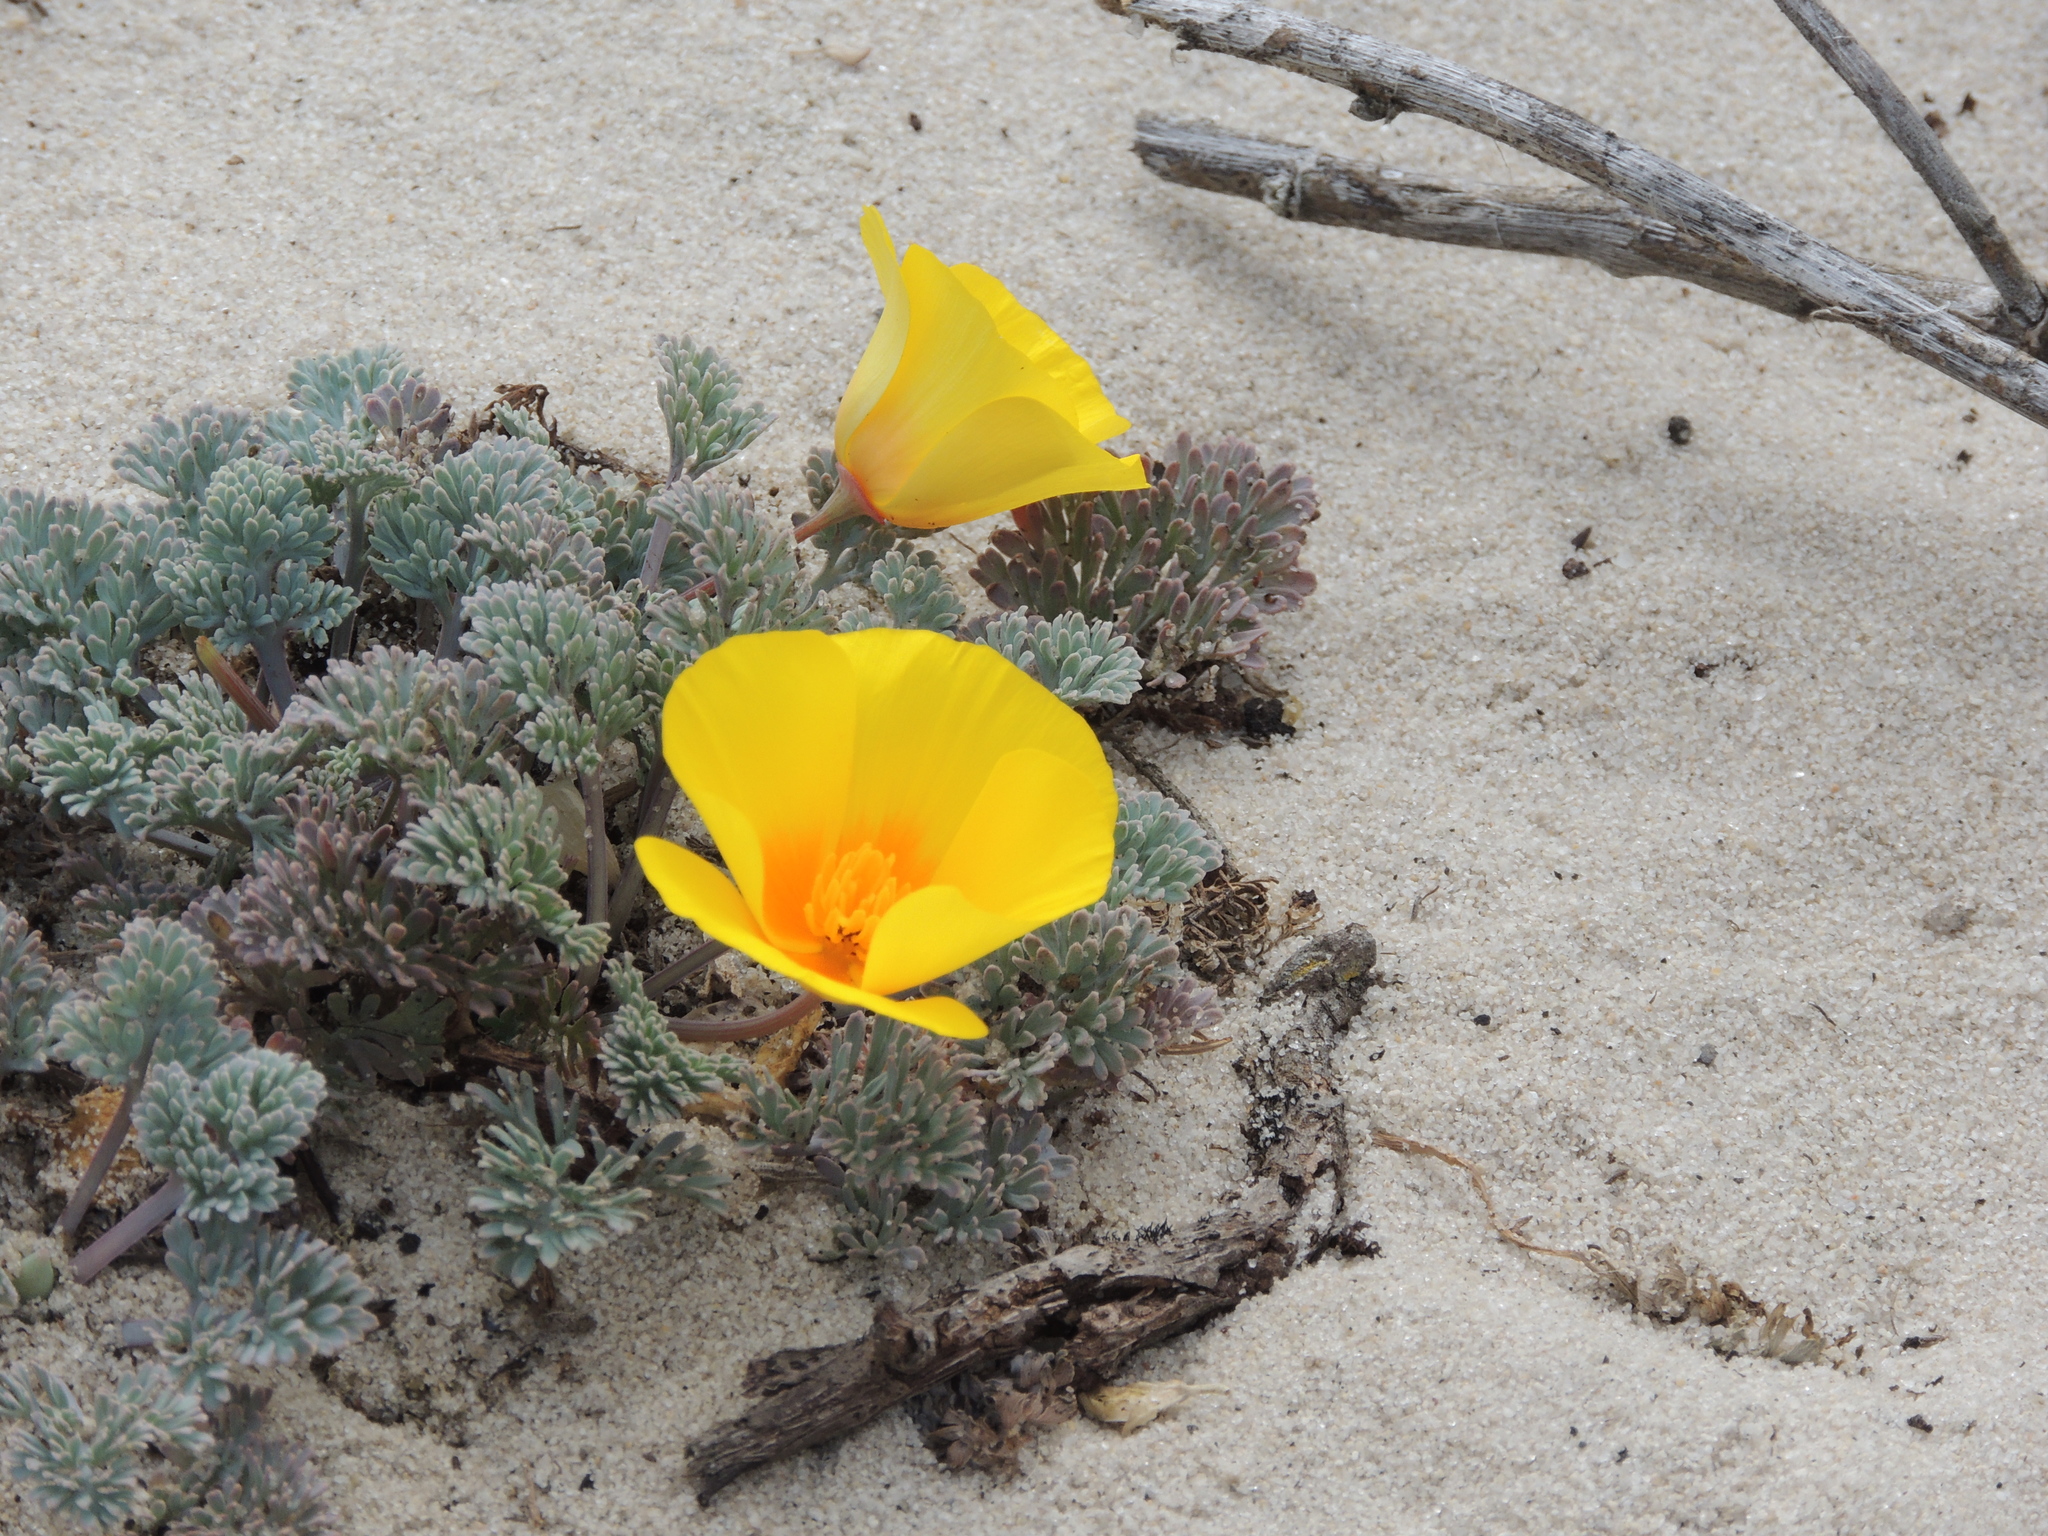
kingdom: Plantae
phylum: Tracheophyta
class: Magnoliopsida
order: Ranunculales
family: Papaveraceae
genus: Eschscholzia
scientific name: Eschscholzia californica
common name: California poppy
